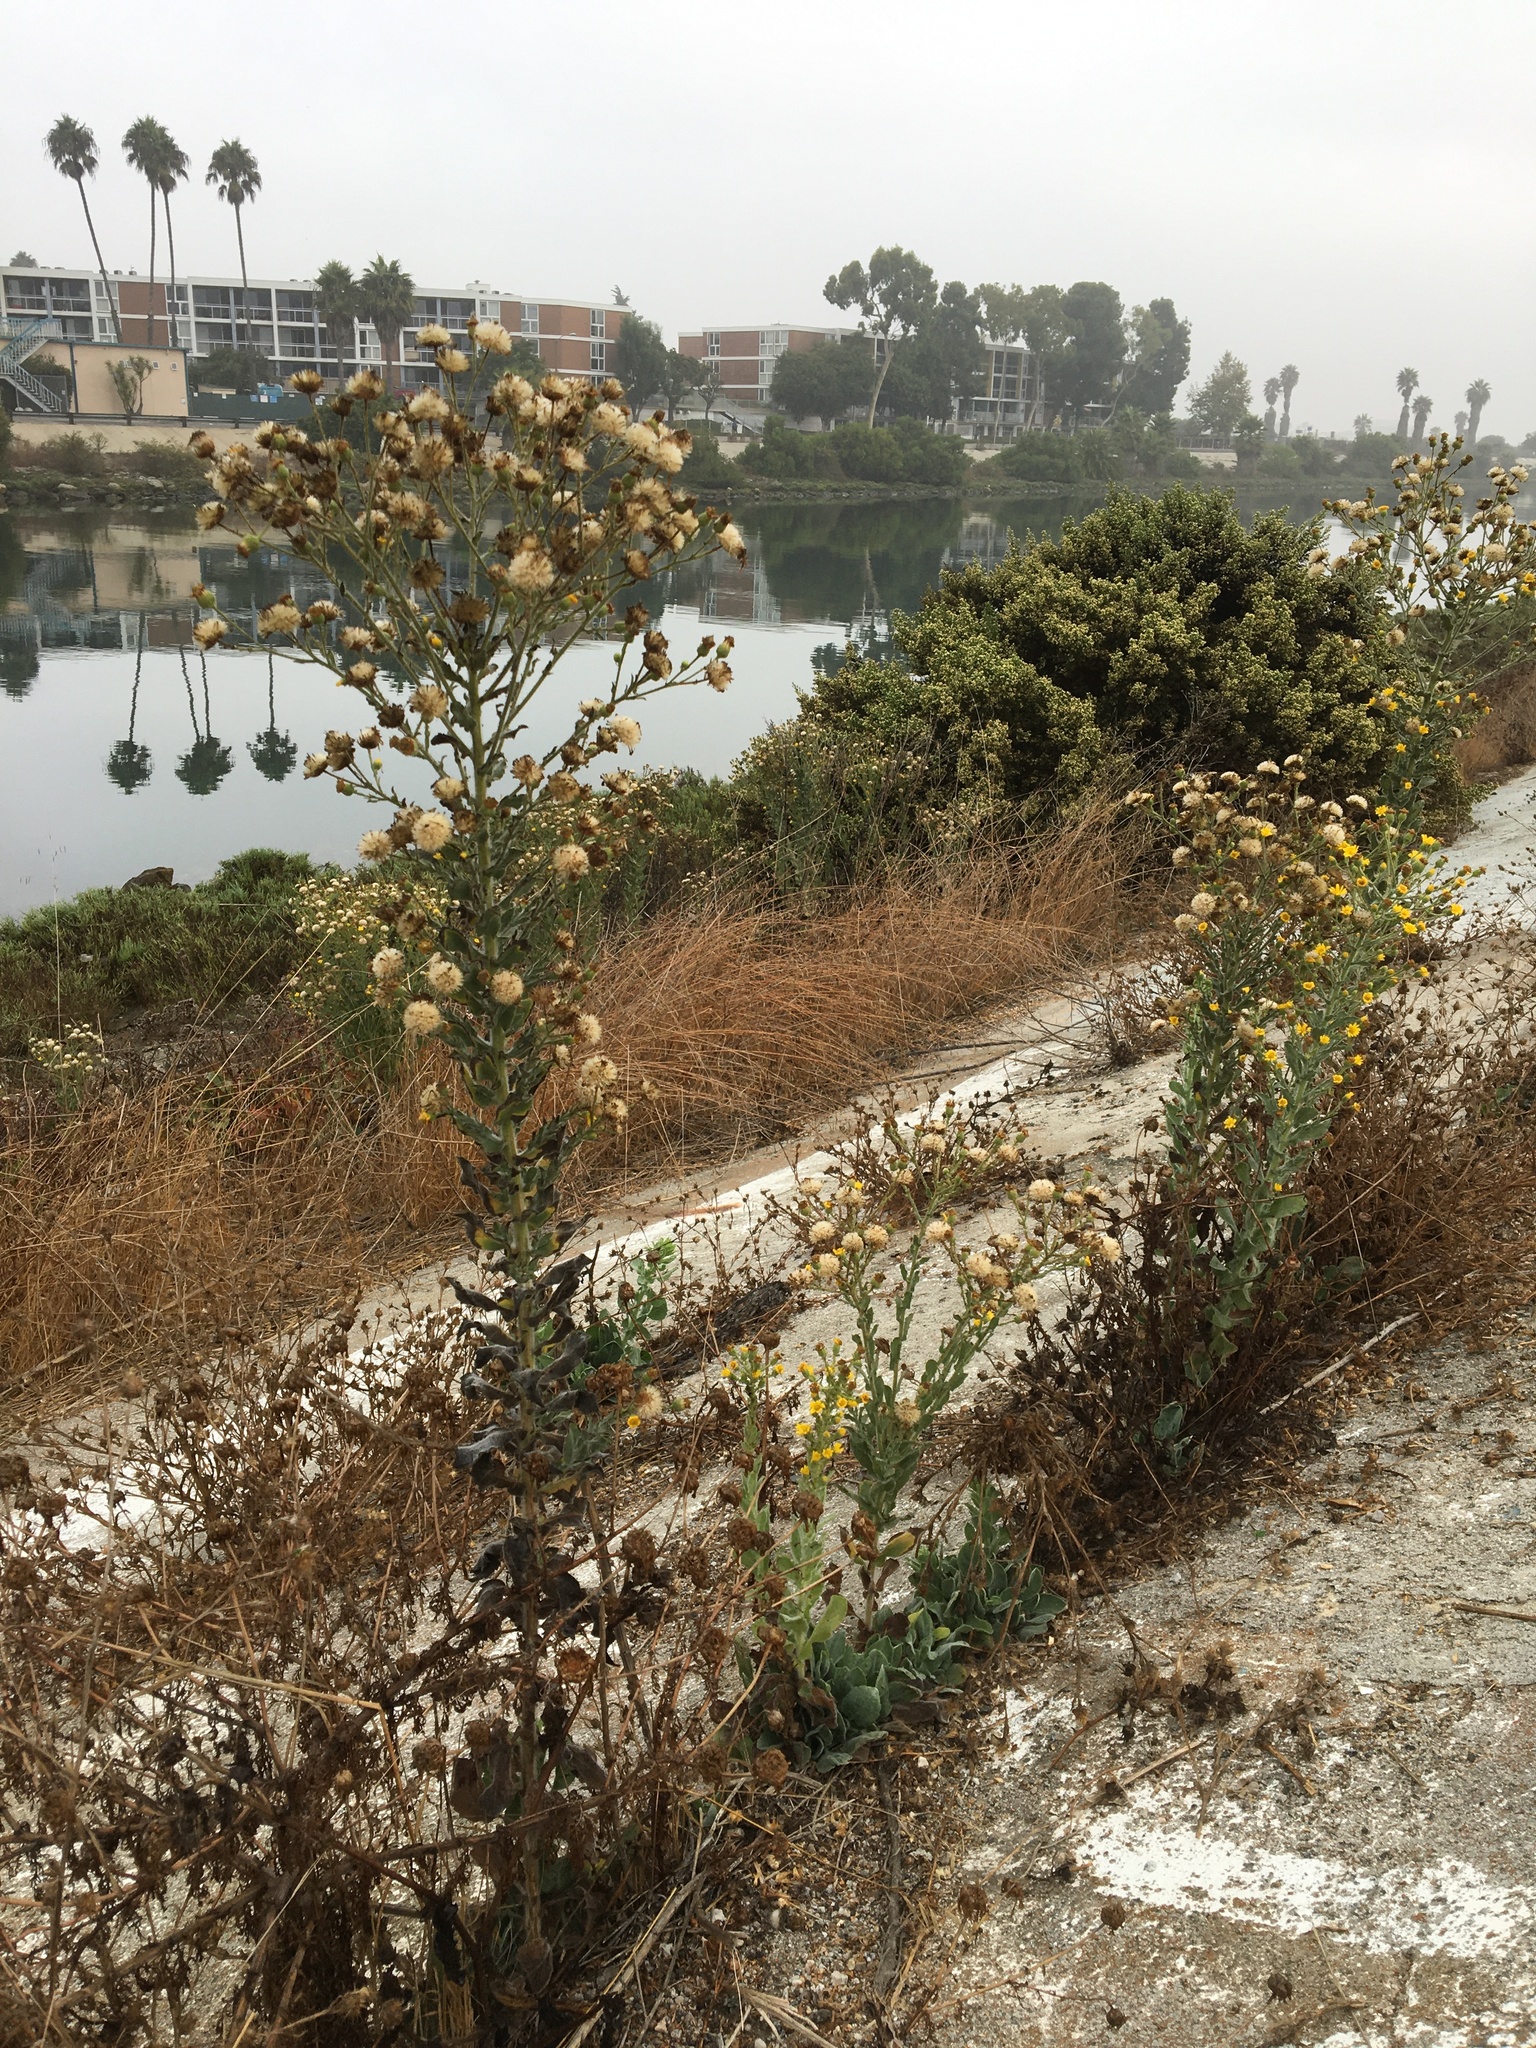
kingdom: Plantae
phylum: Tracheophyta
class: Magnoliopsida
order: Asterales
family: Asteraceae
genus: Heterotheca
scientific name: Heterotheca grandiflora
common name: Telegraphweed
